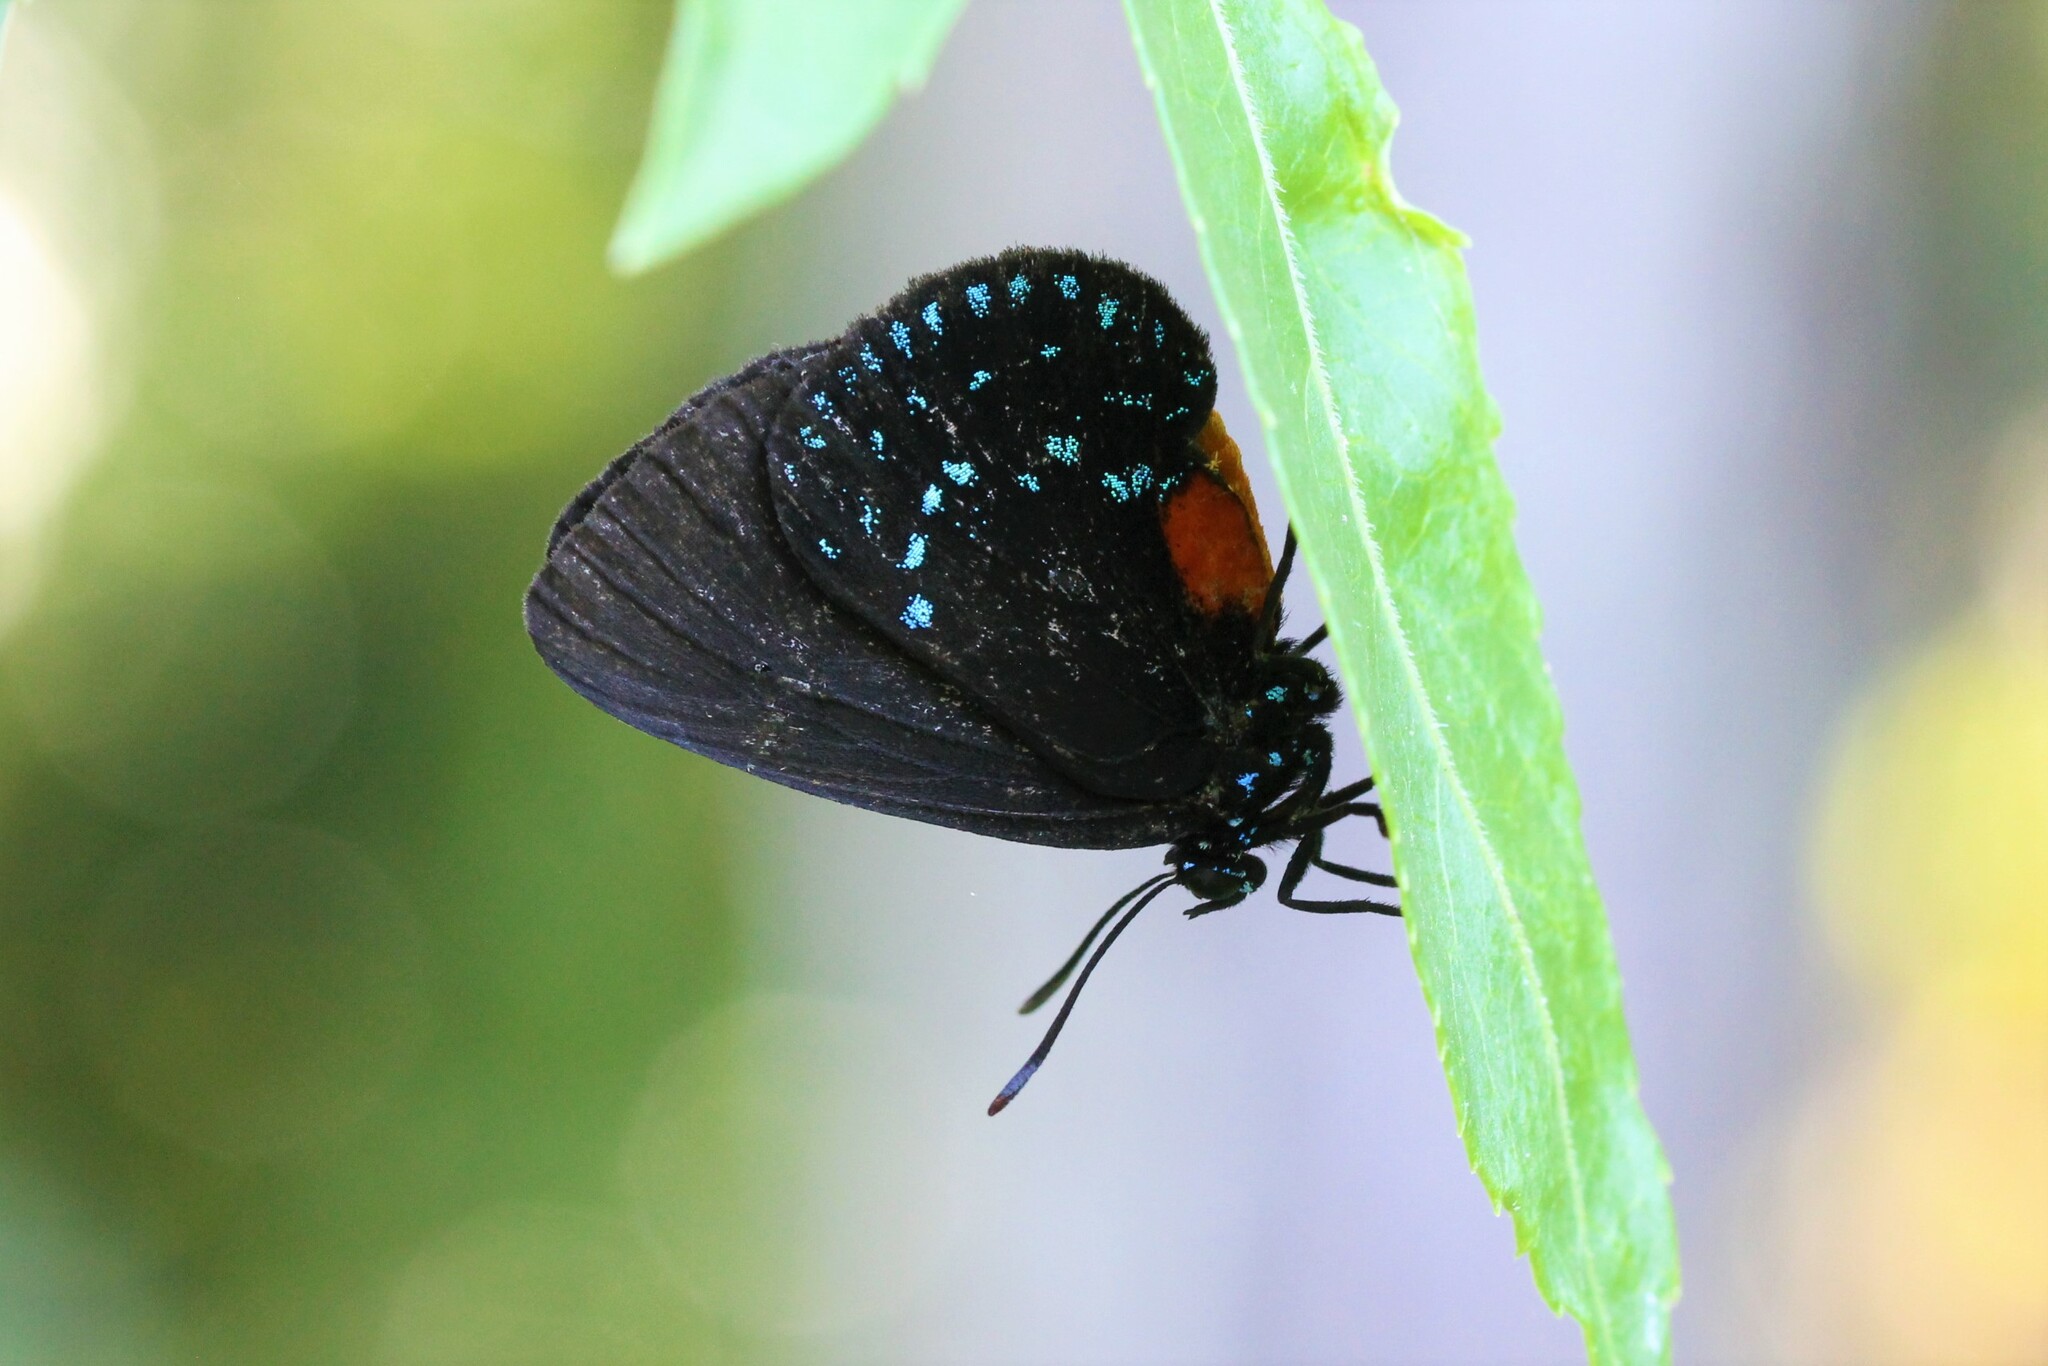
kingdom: Animalia
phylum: Arthropoda
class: Insecta
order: Lepidoptera
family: Lycaenidae
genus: Eumaeus
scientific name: Eumaeus atala
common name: Atala
